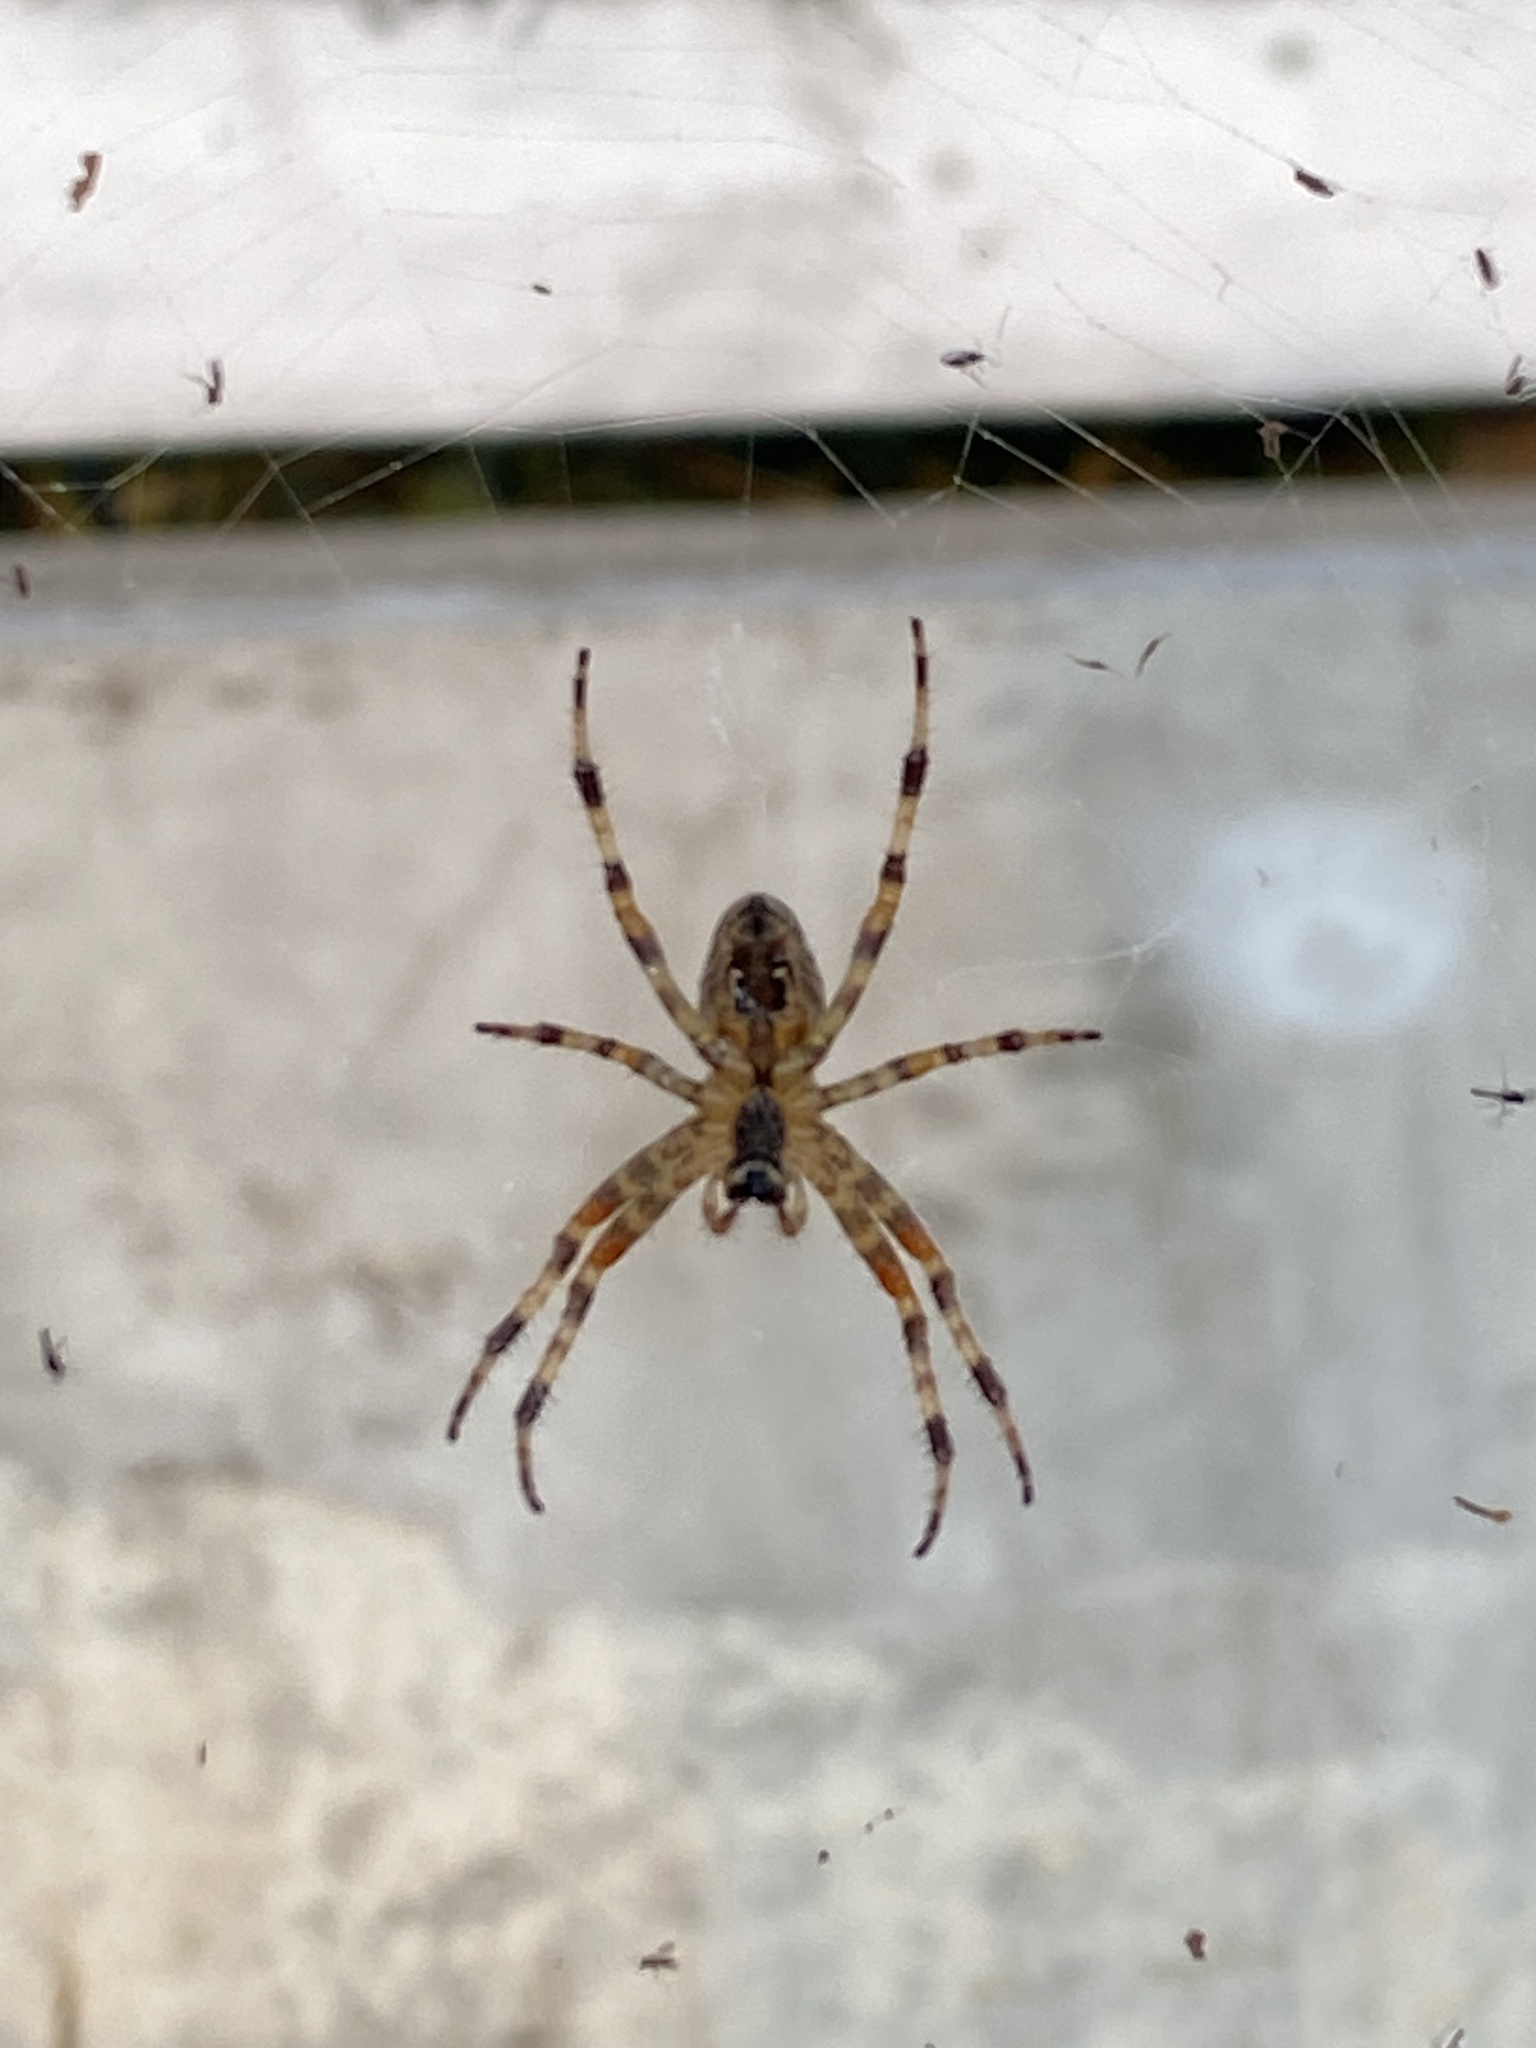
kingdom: Animalia
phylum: Arthropoda
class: Arachnida
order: Araneae
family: Araneidae
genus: Araneus
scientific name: Araneus diadematus
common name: Cross orbweaver
